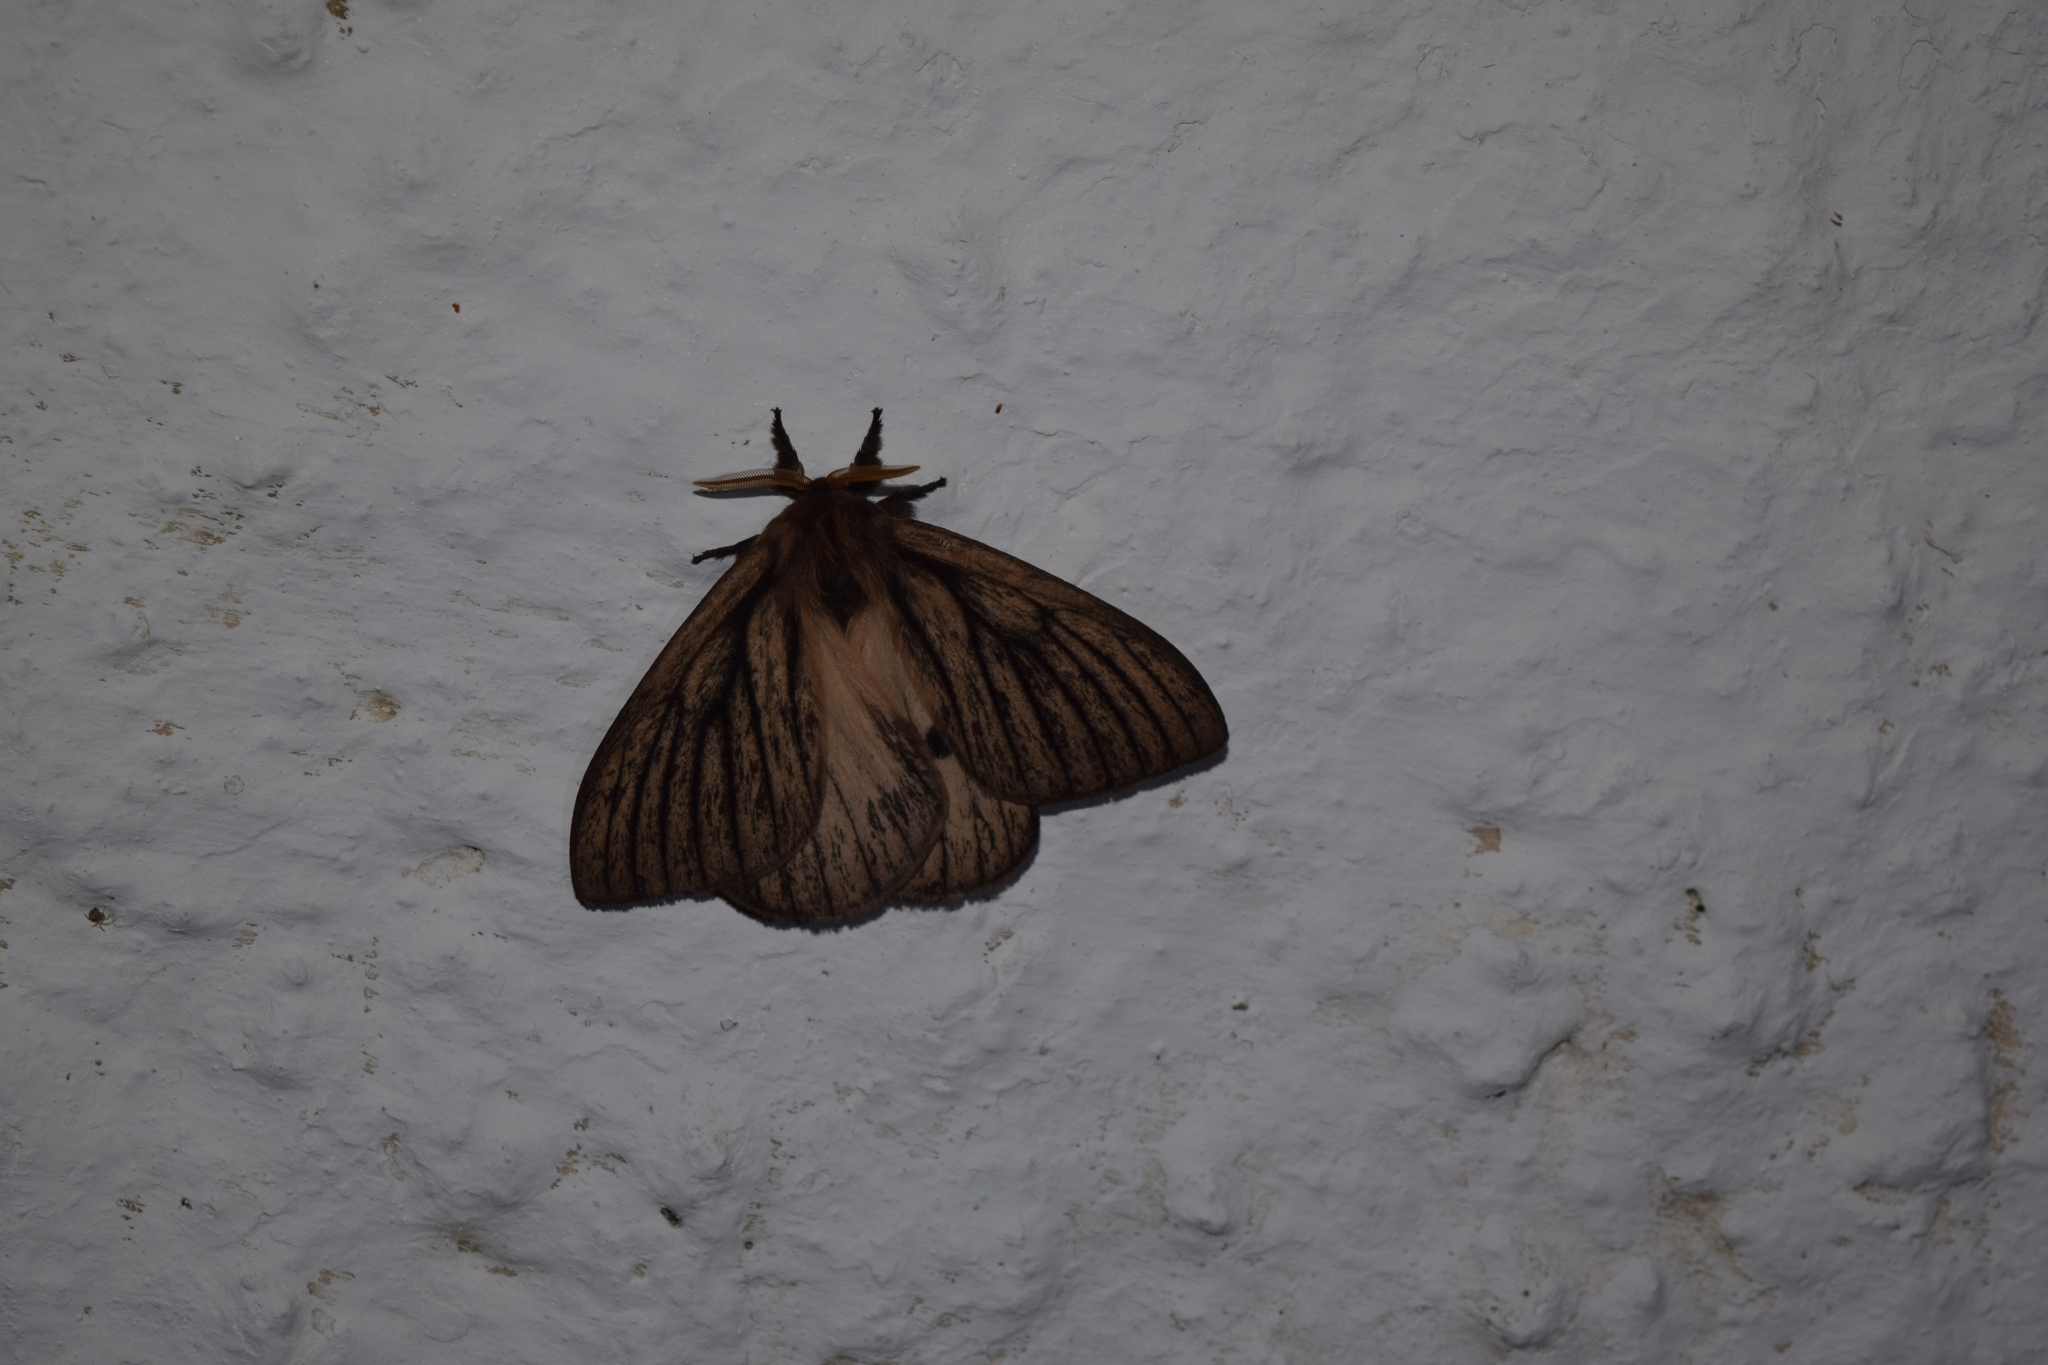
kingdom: Animalia
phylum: Arthropoda
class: Insecta
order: Lepidoptera
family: Saturniidae
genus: Eudyaria
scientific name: Eudyaria zeta
